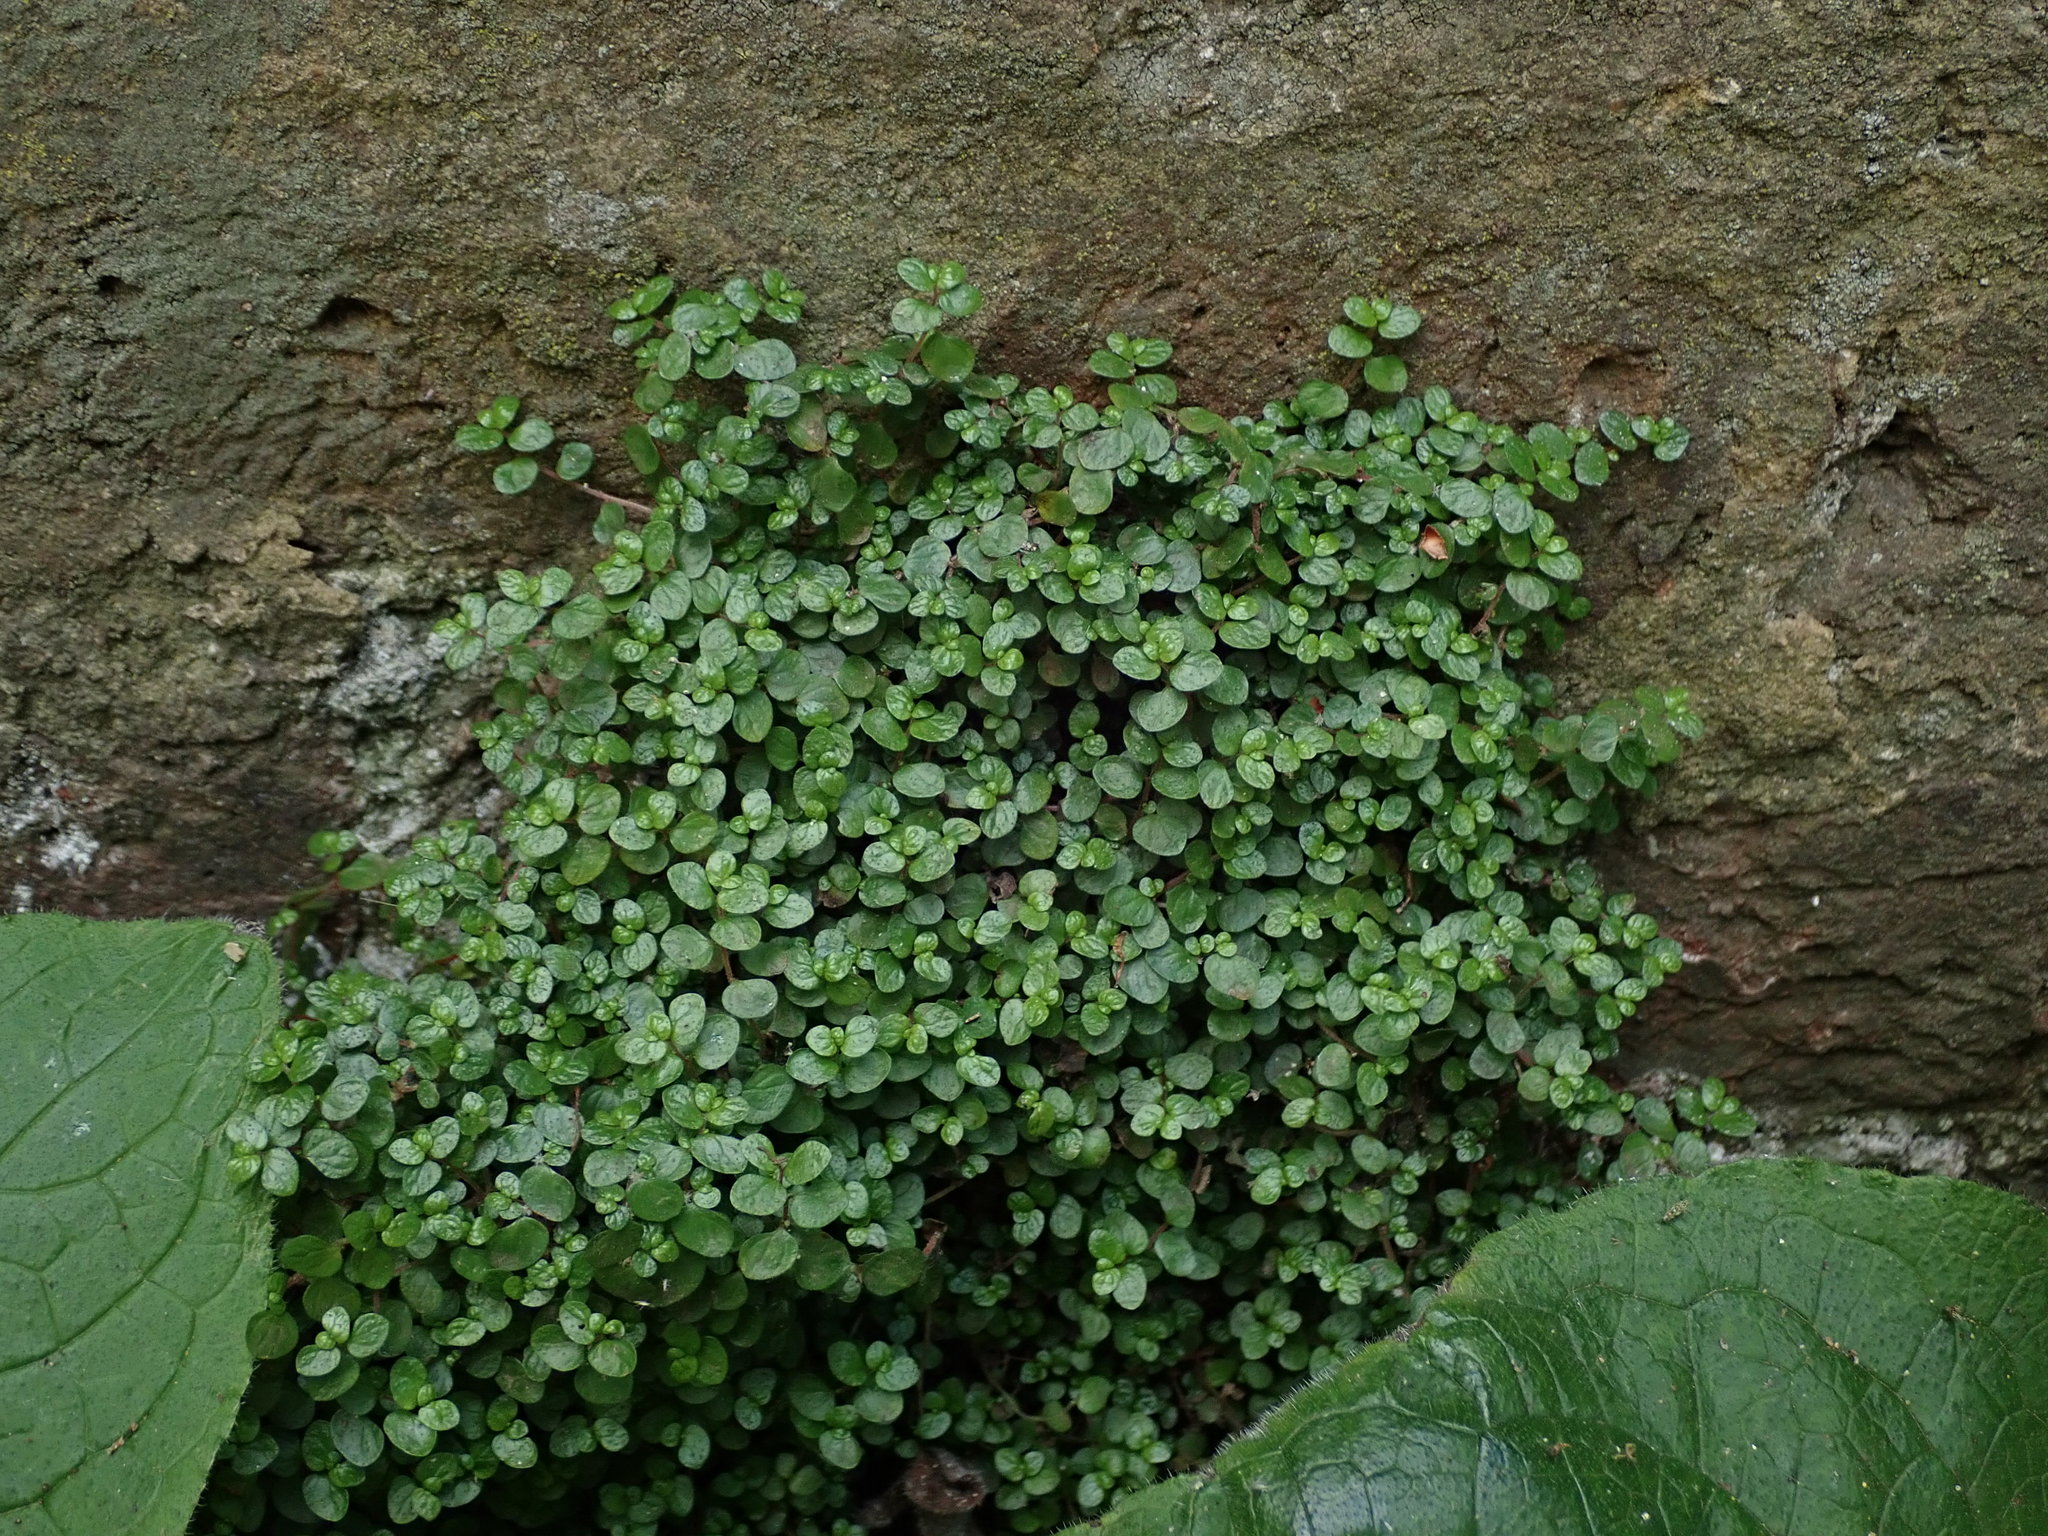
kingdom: Plantae
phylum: Tracheophyta
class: Magnoliopsida
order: Rosales
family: Urticaceae
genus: Soleirolia
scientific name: Soleirolia soleirolii
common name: Mind-your-own-business
